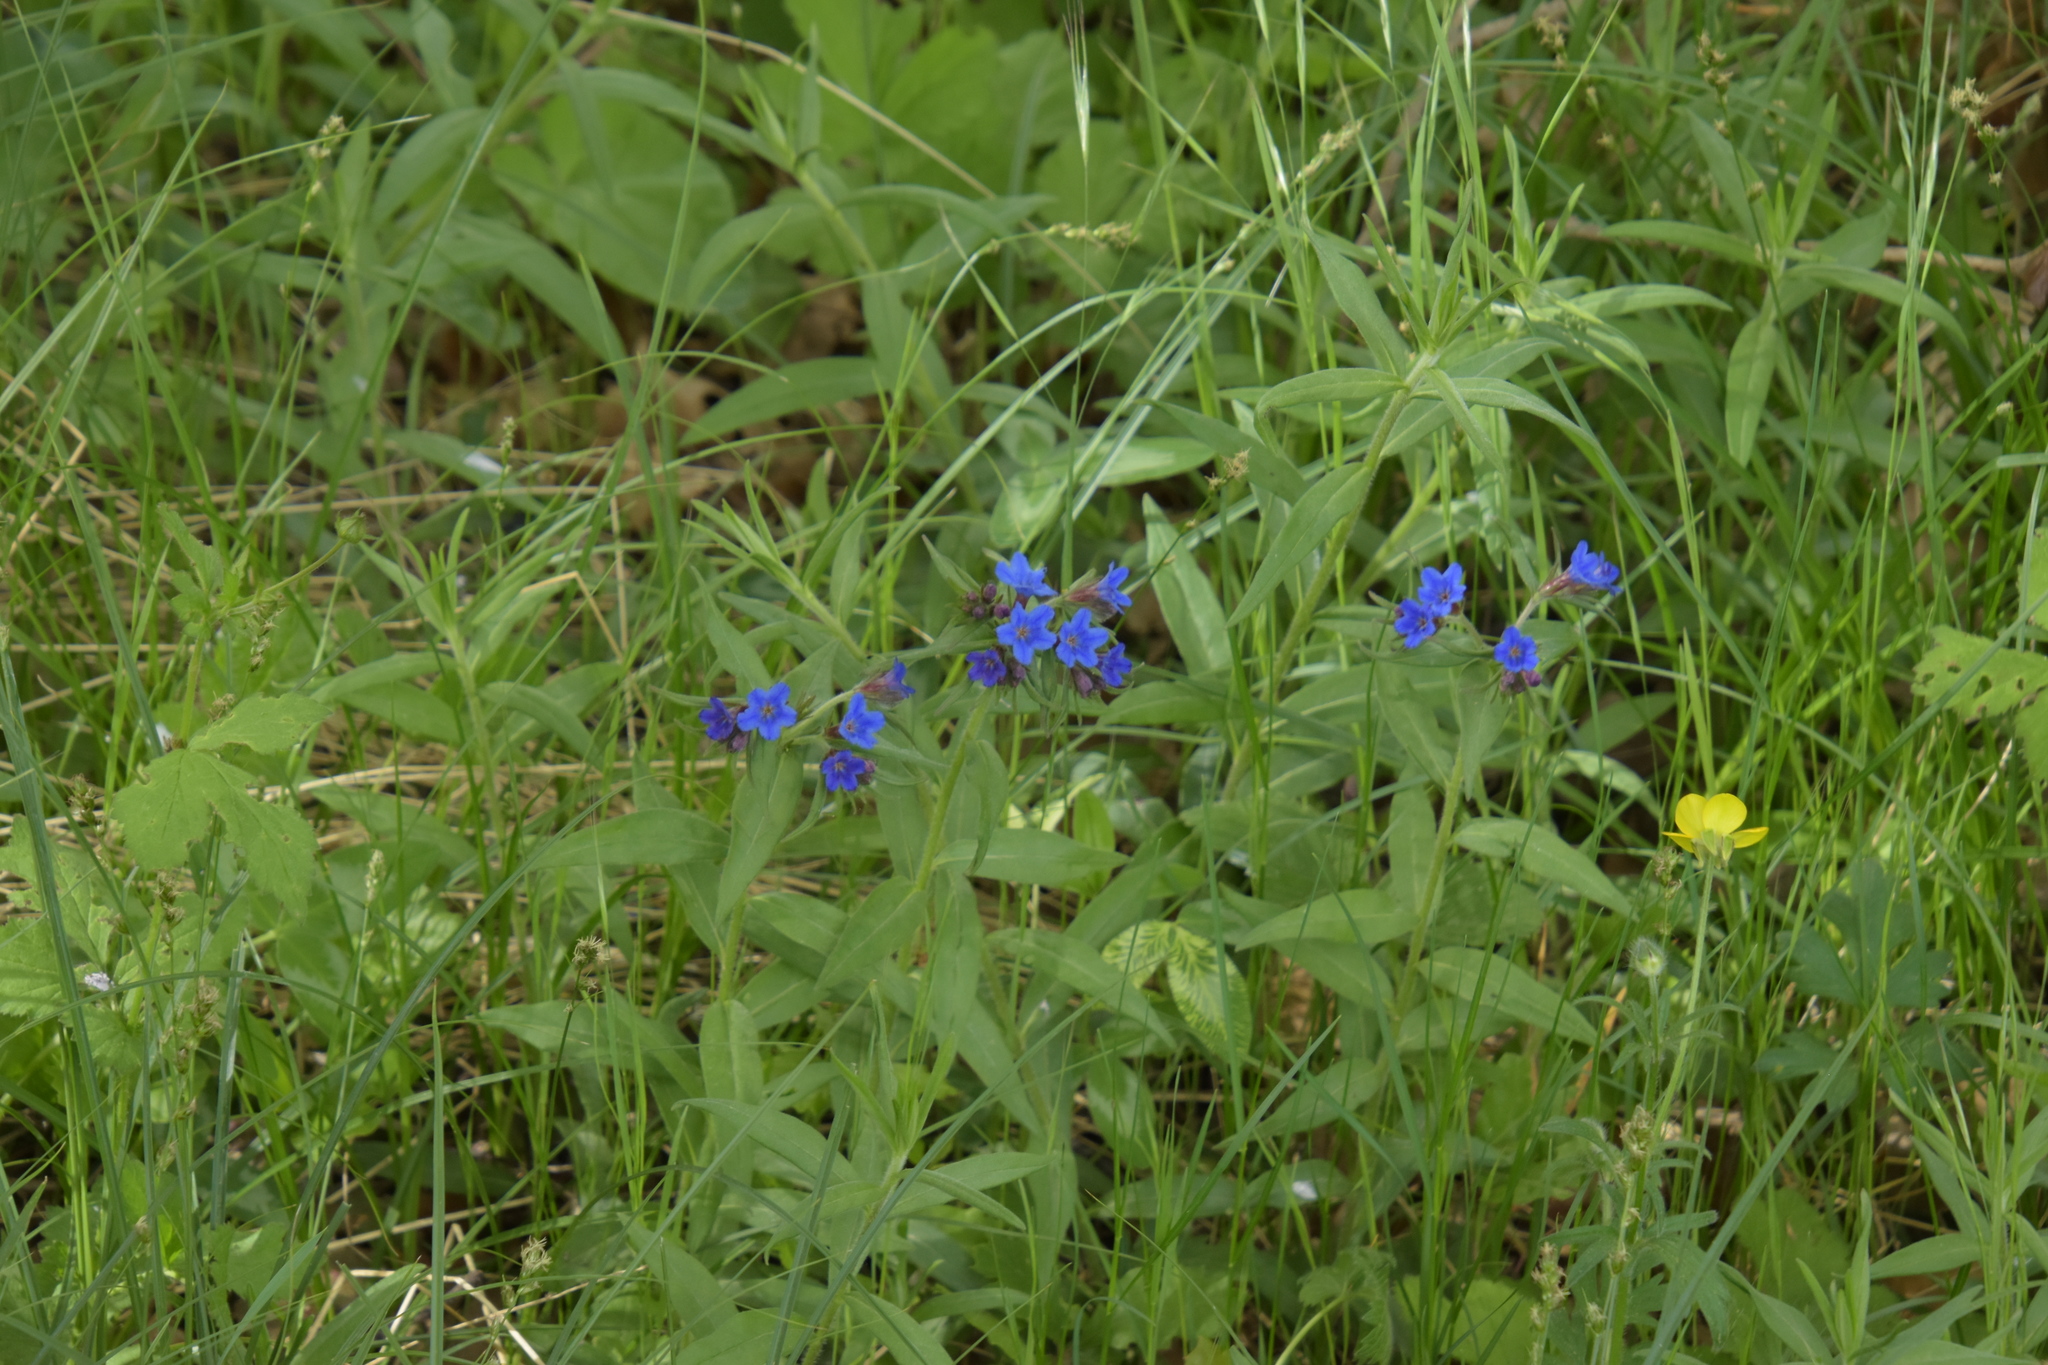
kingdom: Plantae
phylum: Tracheophyta
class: Magnoliopsida
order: Boraginales
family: Boraginaceae
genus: Aegonychon
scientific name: Aegonychon purpurocaeruleum
